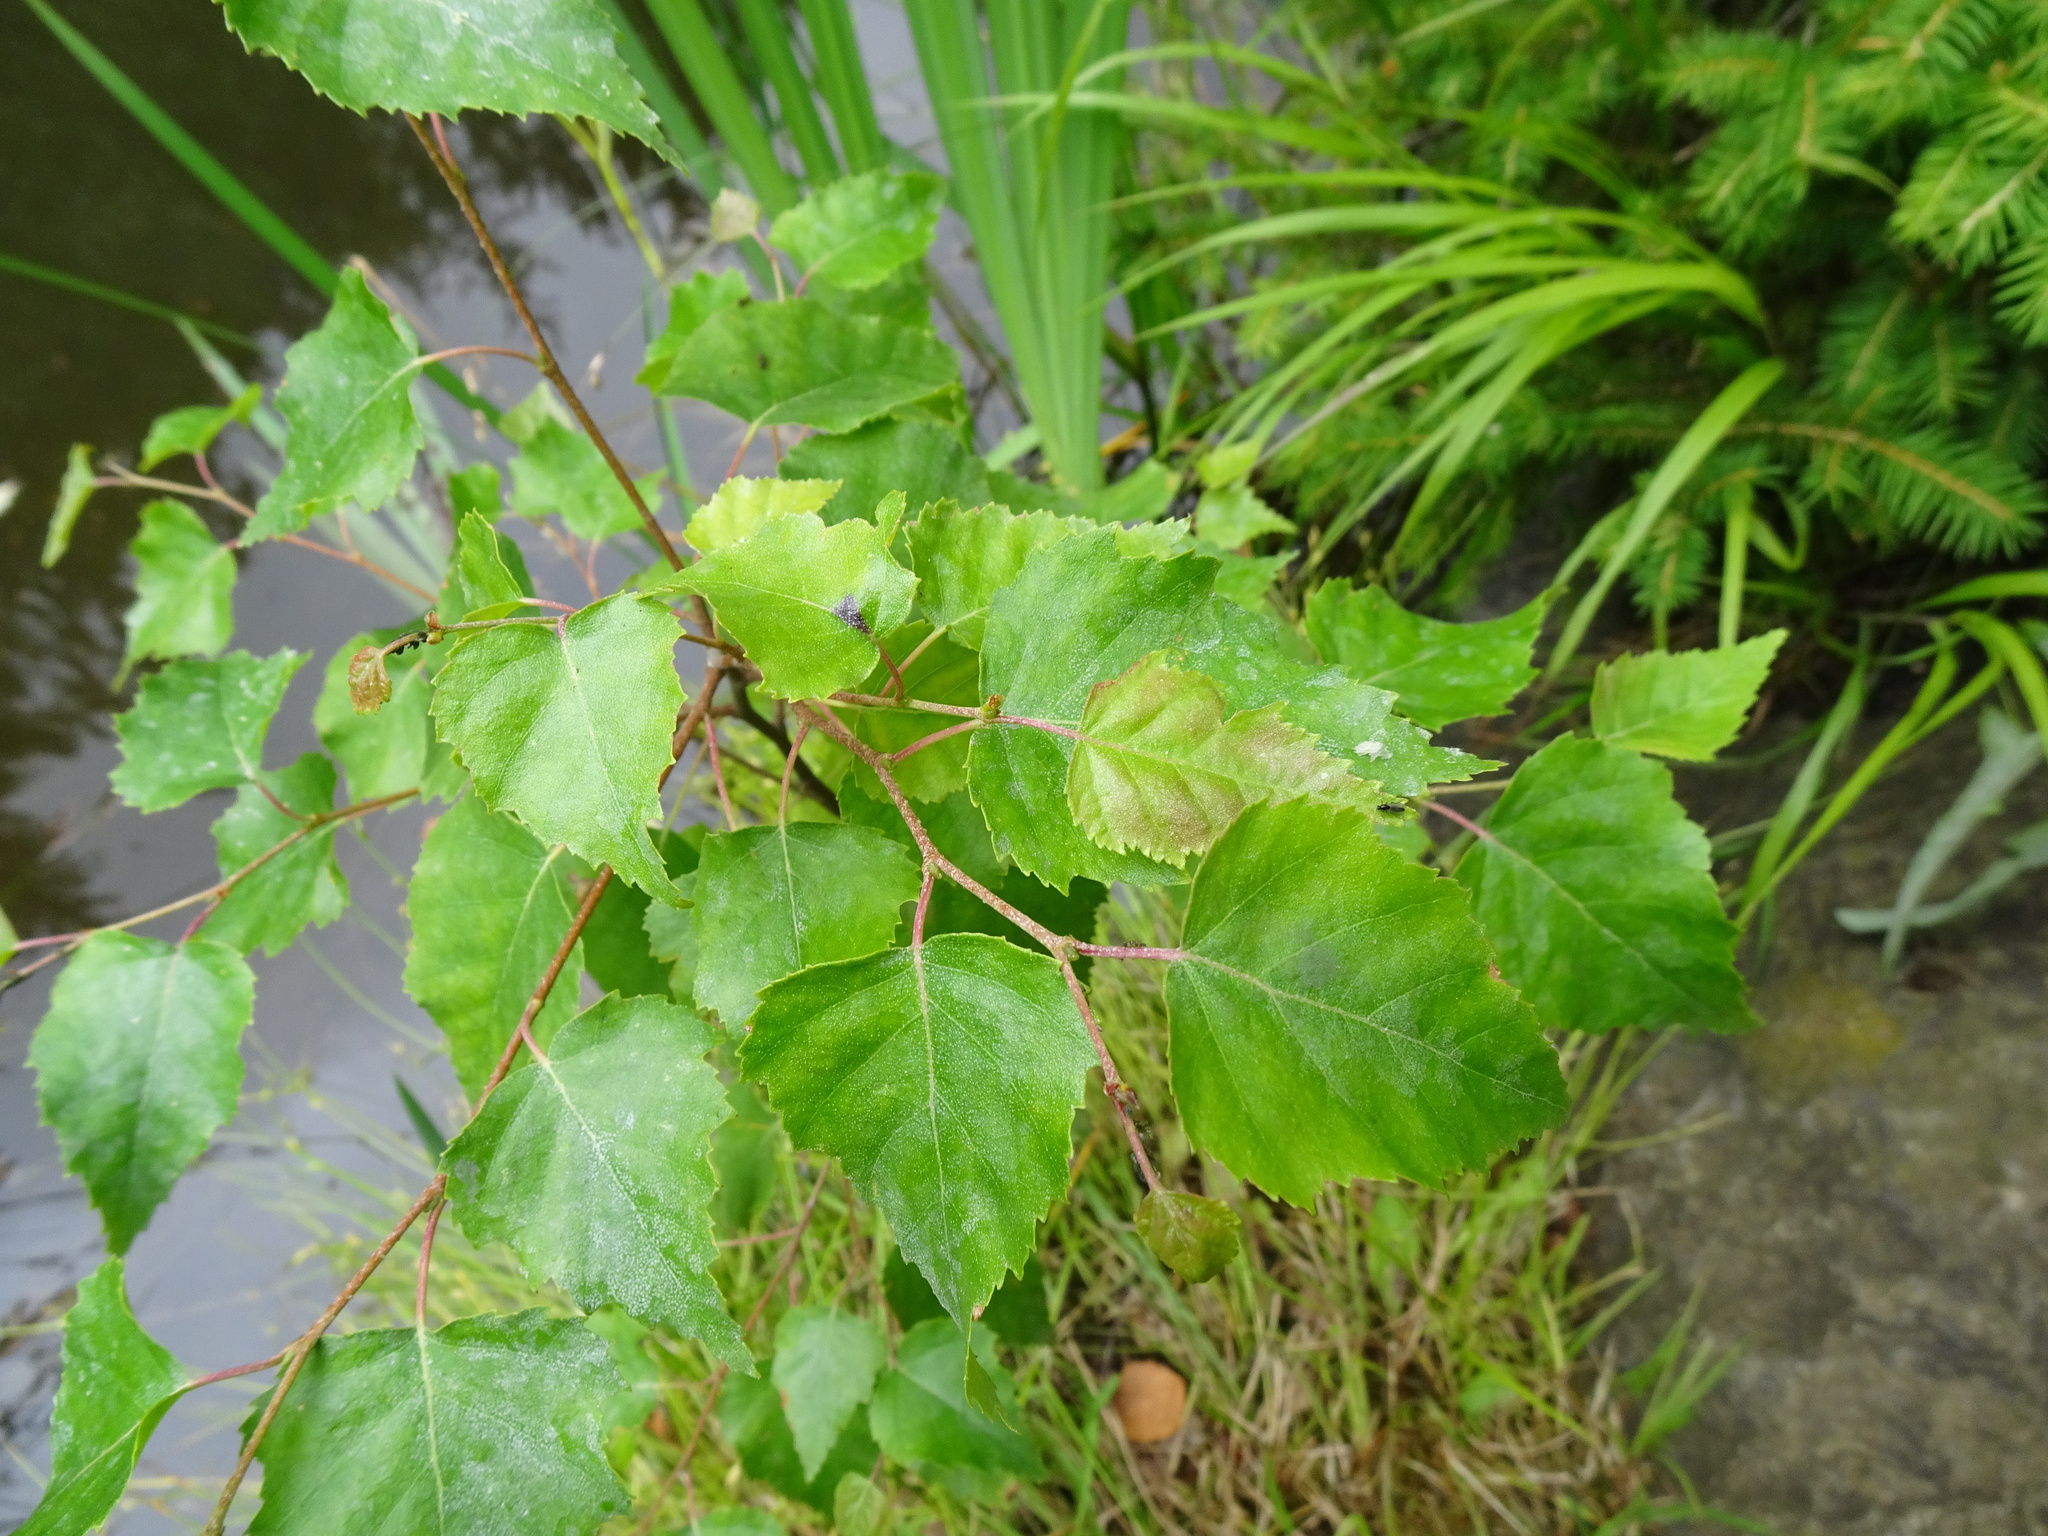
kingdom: Plantae
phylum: Tracheophyta
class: Magnoliopsida
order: Fagales
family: Betulaceae
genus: Betula
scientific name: Betula pendula
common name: Silver birch
